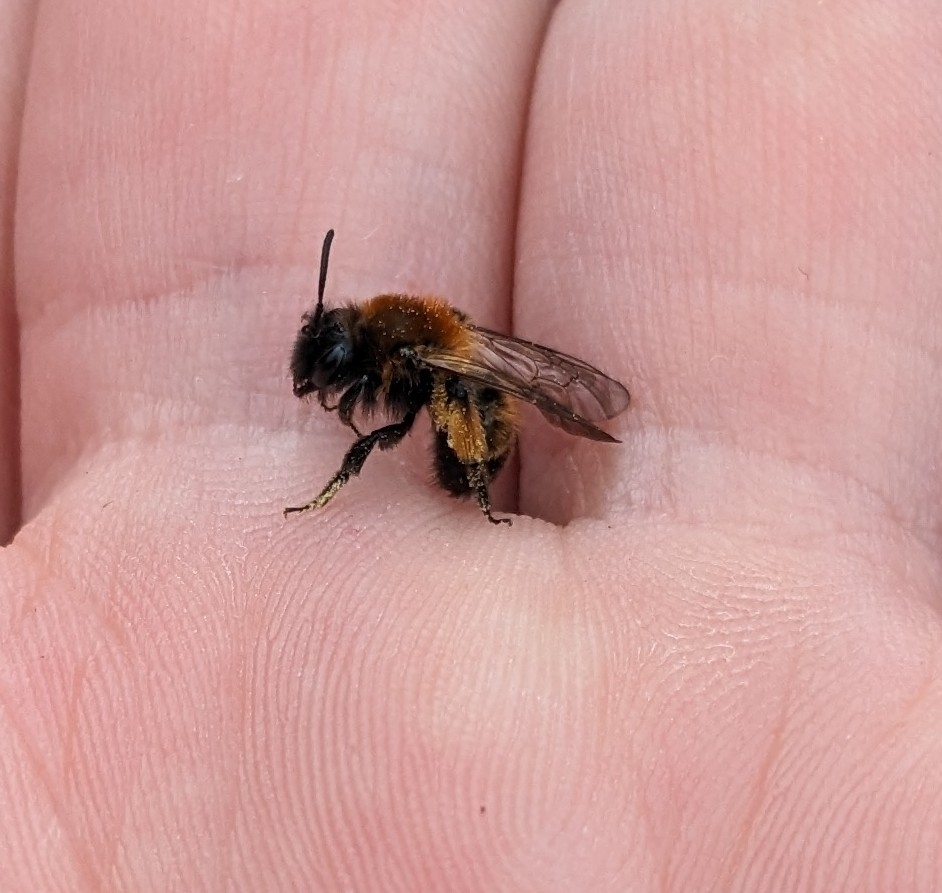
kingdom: Animalia
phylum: Arthropoda
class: Insecta
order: Hymenoptera
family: Andrenidae
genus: Andrena
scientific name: Andrena bicolor
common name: Gwynne's mining bee
